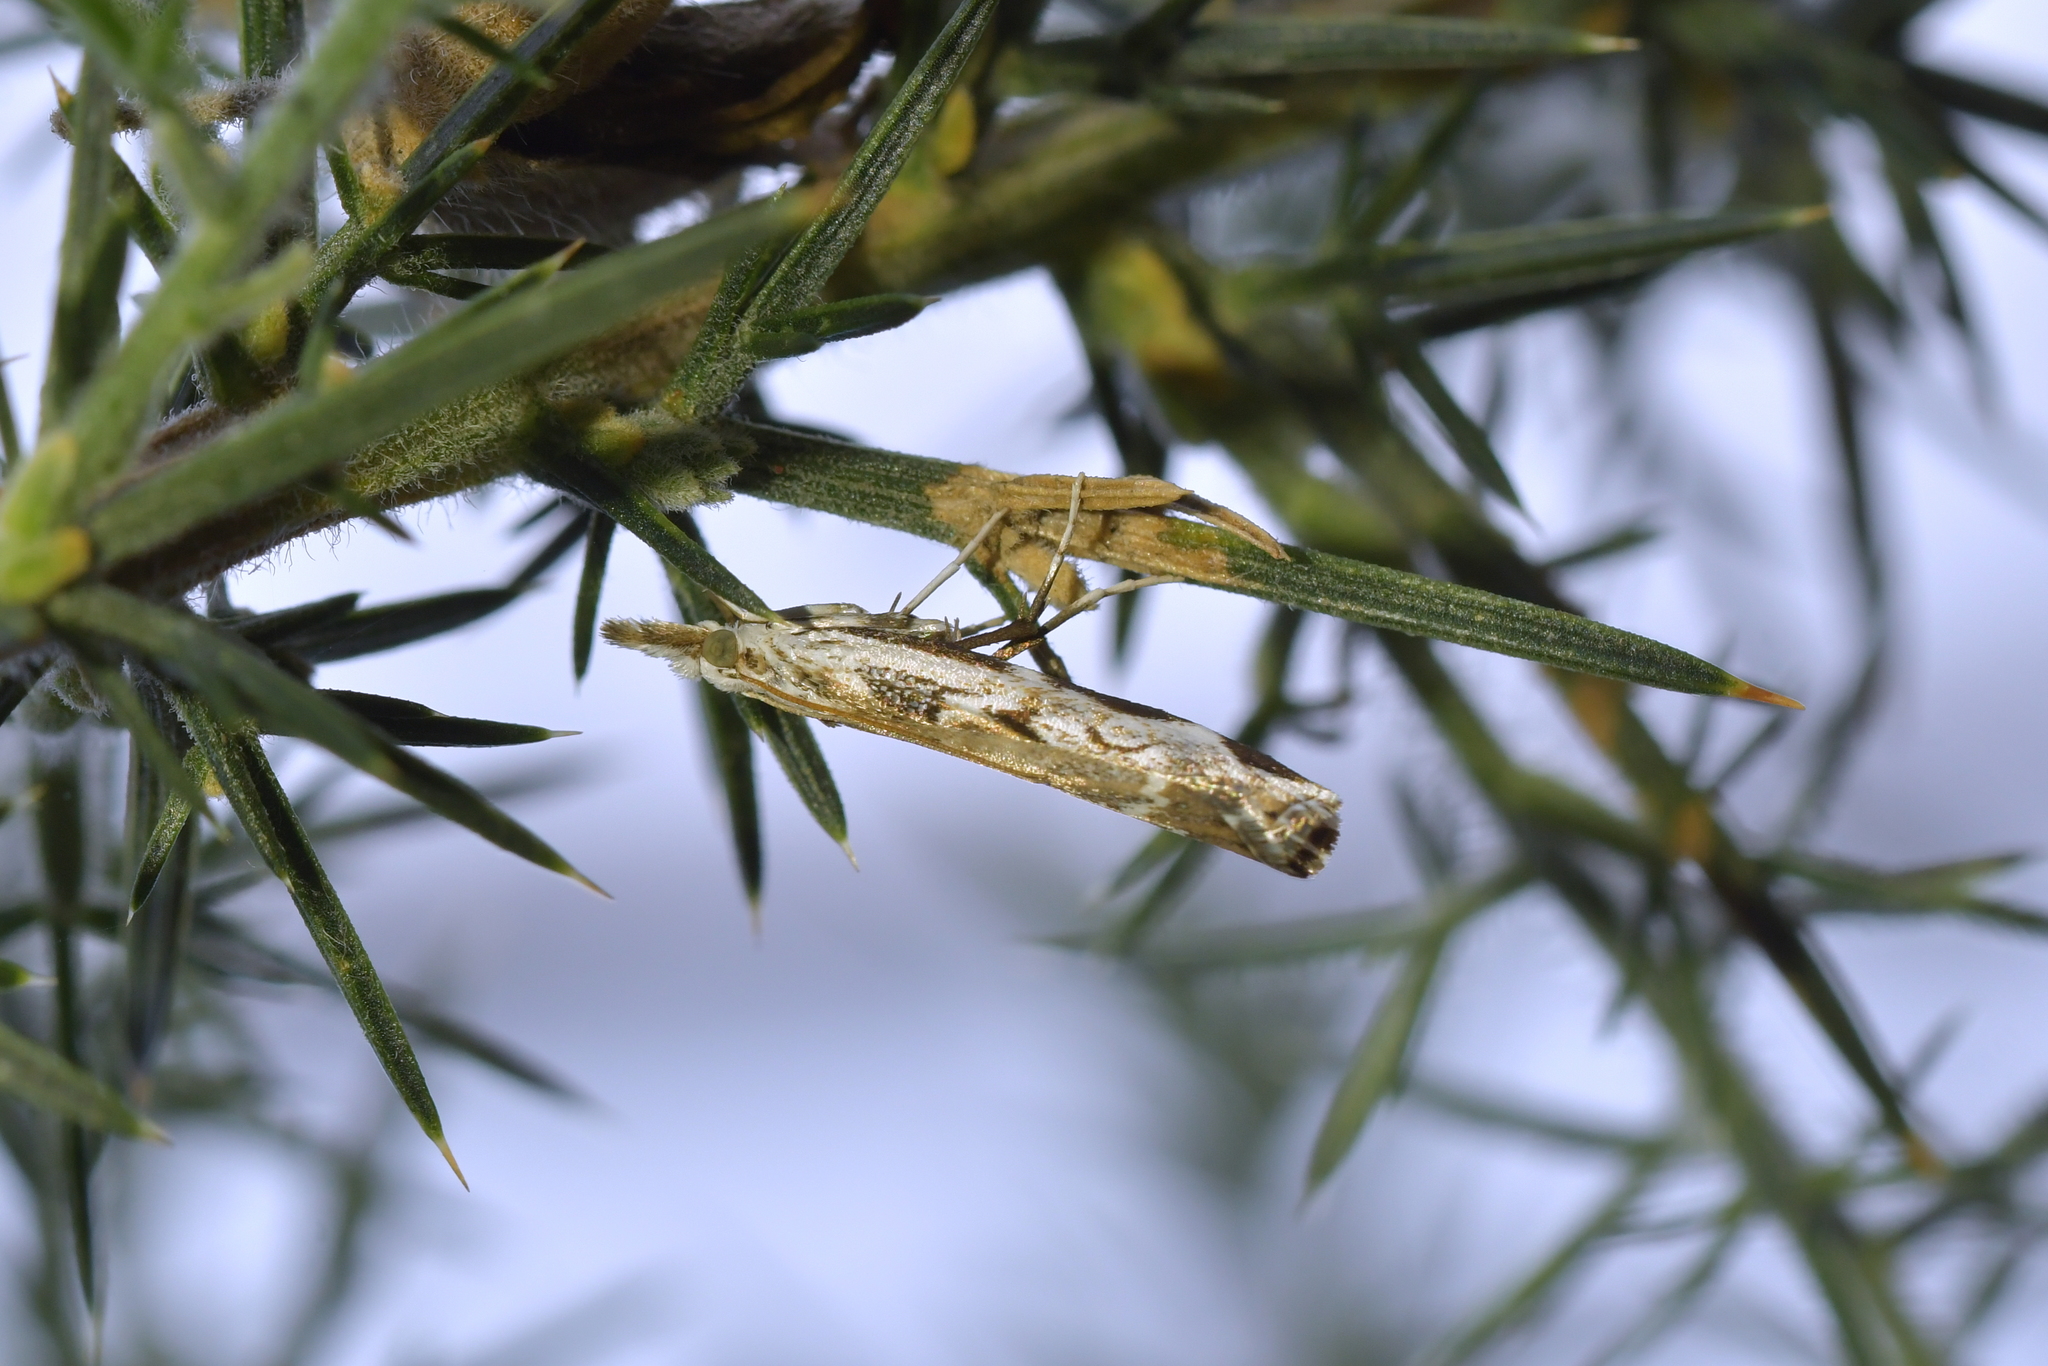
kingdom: Animalia
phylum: Arthropoda
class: Insecta
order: Lepidoptera
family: Crambidae
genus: Orocrambus
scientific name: Orocrambus tuhualis
